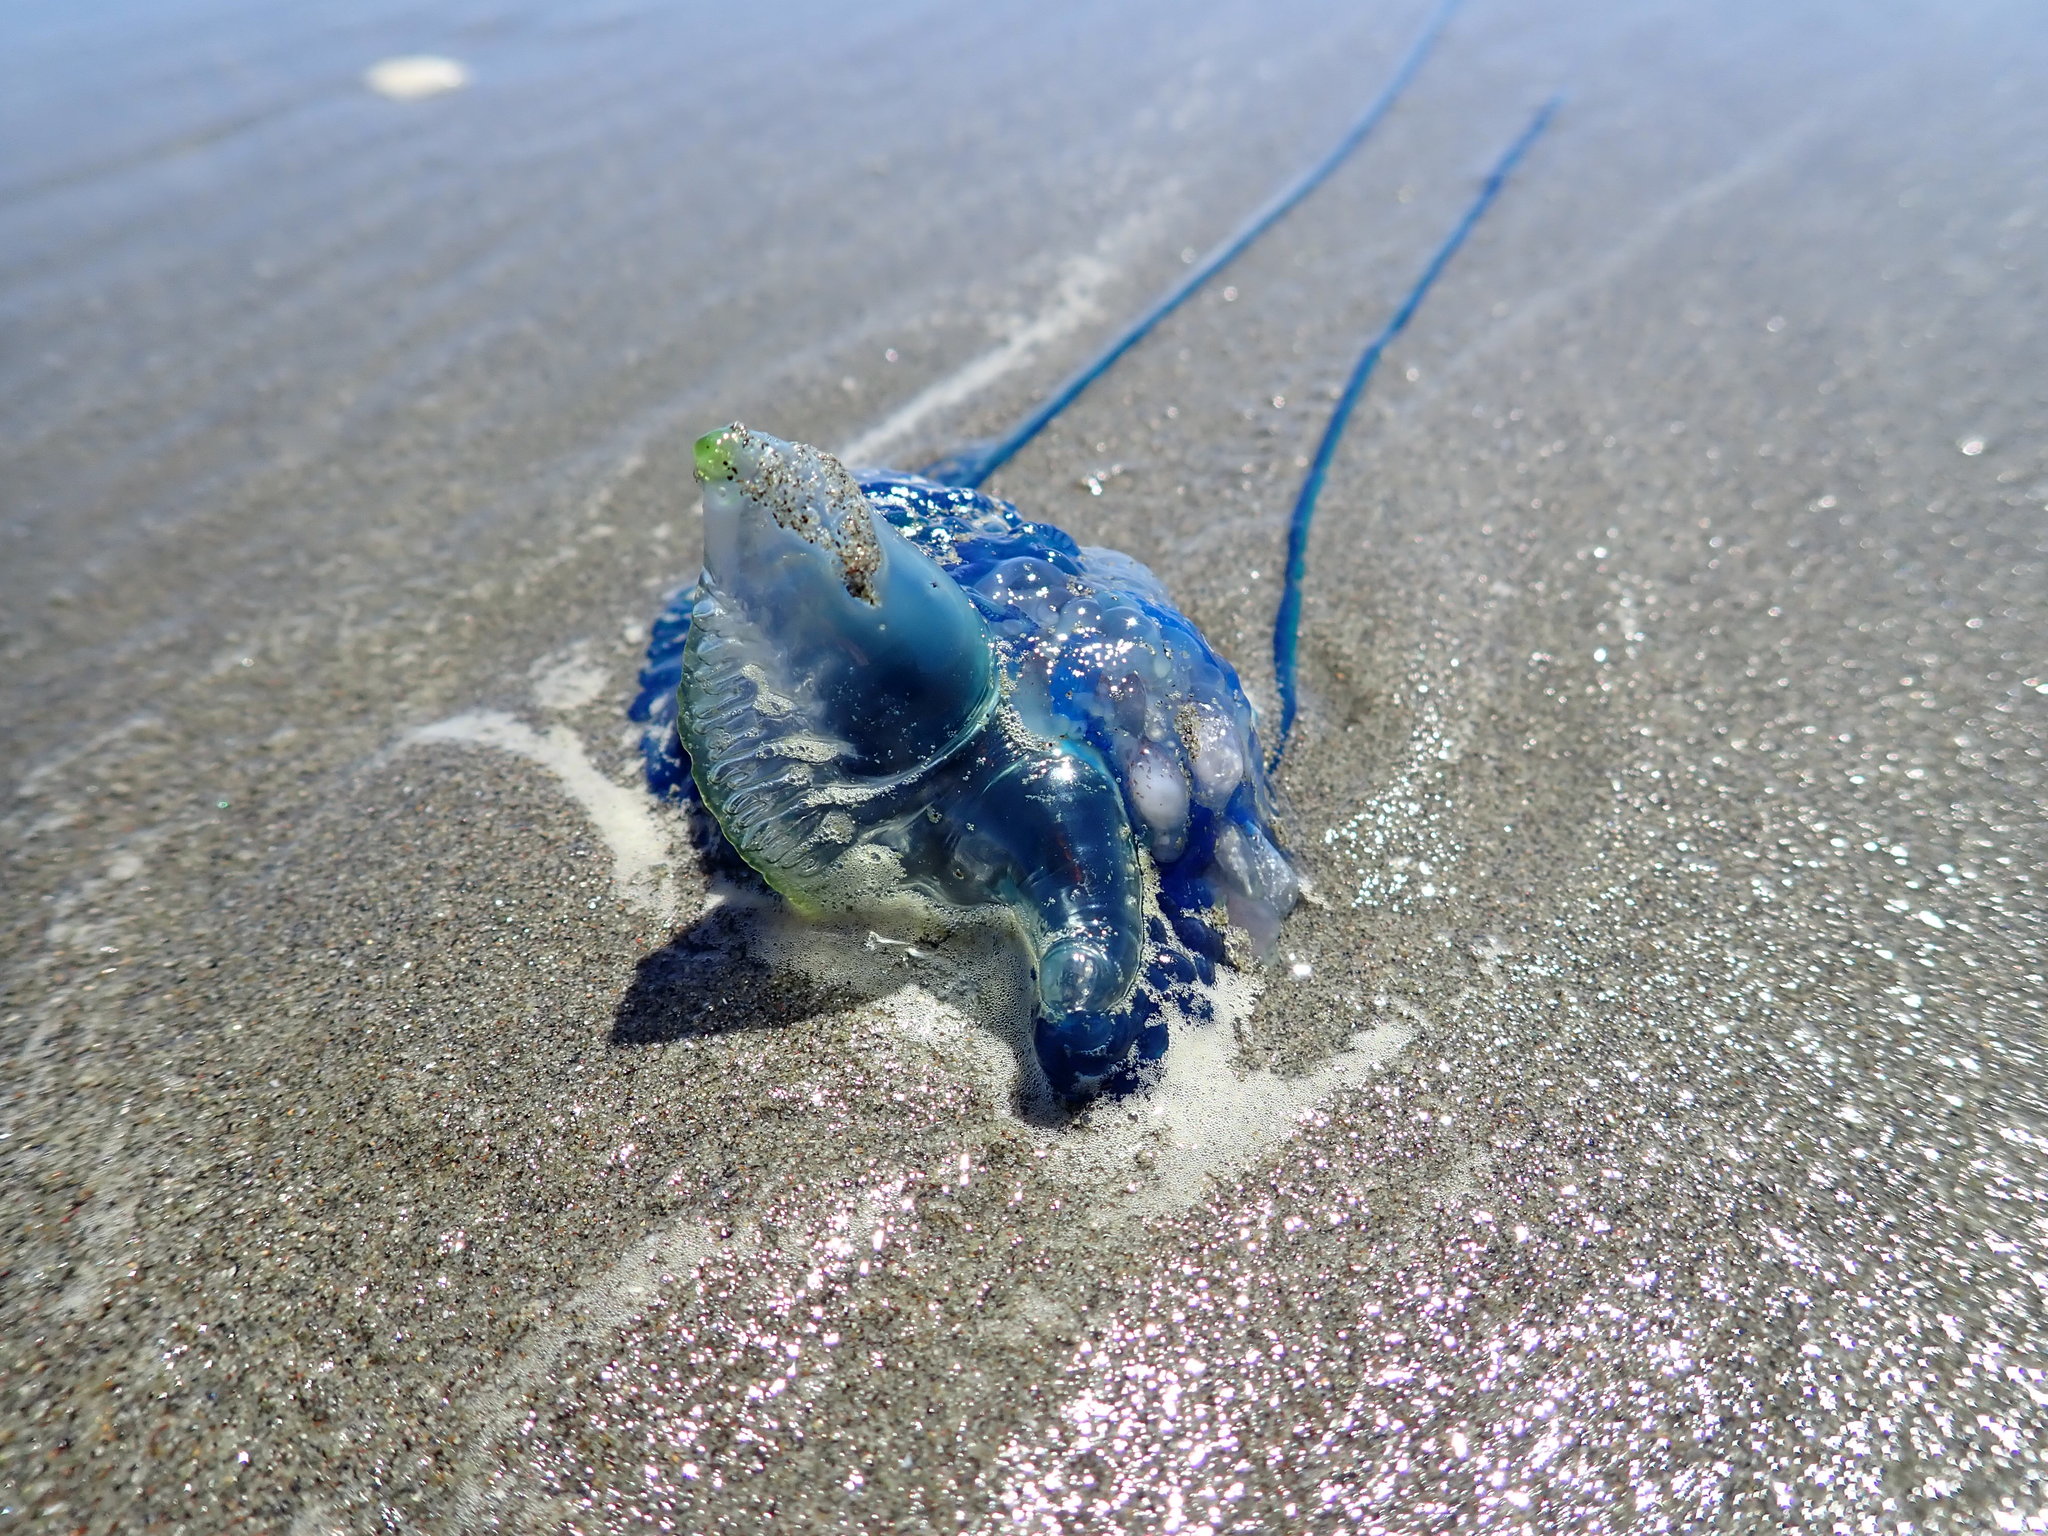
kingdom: Animalia
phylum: Cnidaria
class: Hydrozoa
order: Siphonophorae
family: Physaliidae
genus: Physalia
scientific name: Physalia physalis
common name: Portuguese man-of-war
